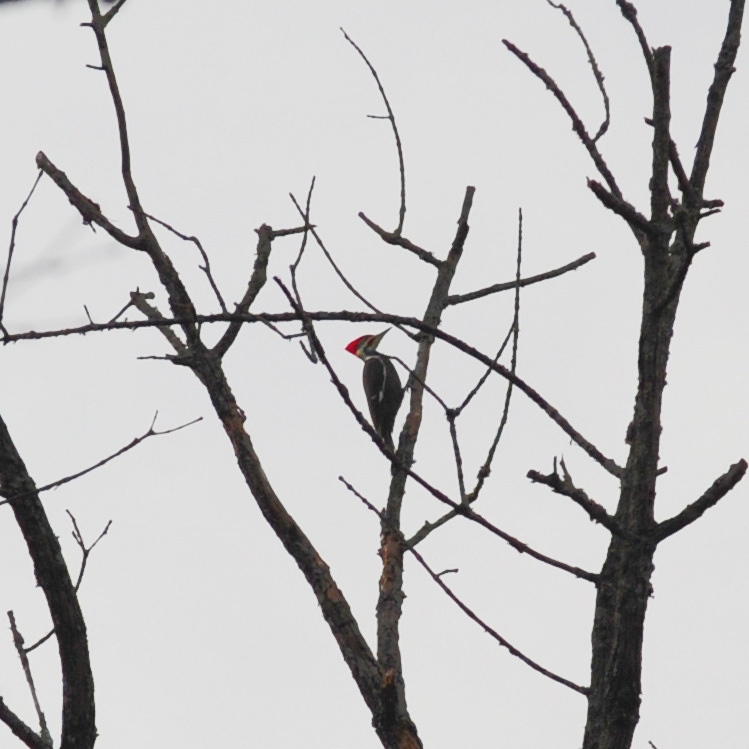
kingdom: Animalia
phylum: Chordata
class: Aves
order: Piciformes
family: Picidae
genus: Dryocopus
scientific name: Dryocopus pileatus
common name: Pileated woodpecker
